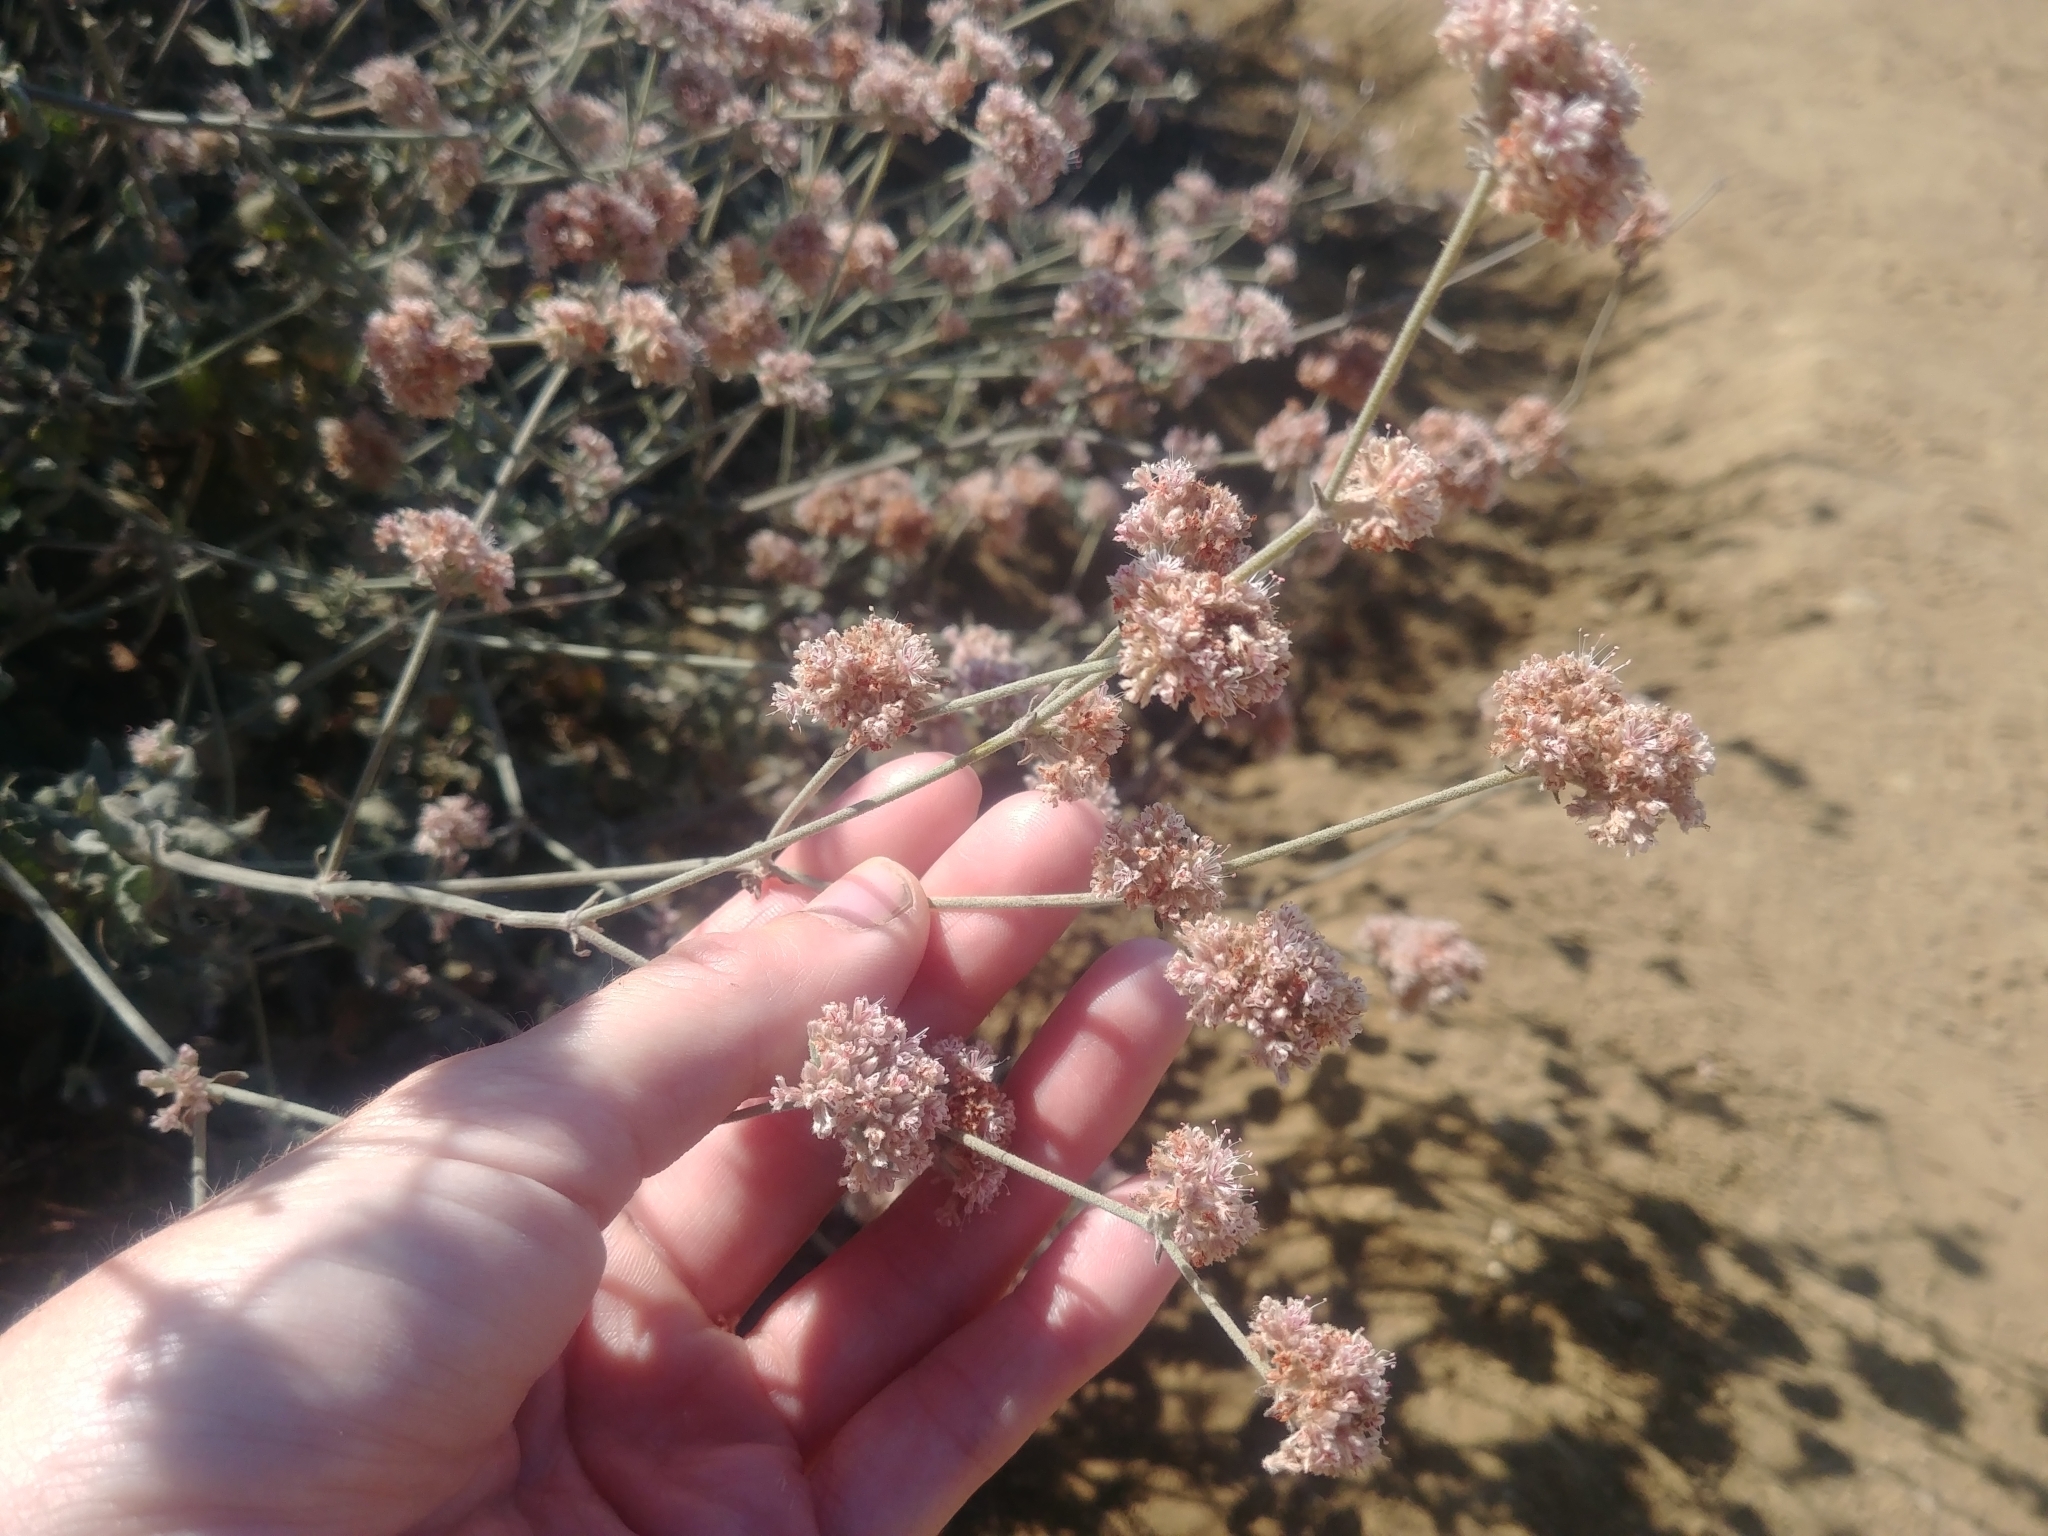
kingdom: Plantae
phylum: Tracheophyta
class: Magnoliopsida
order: Caryophyllales
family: Polygonaceae
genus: Eriogonum
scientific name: Eriogonum cinereum
